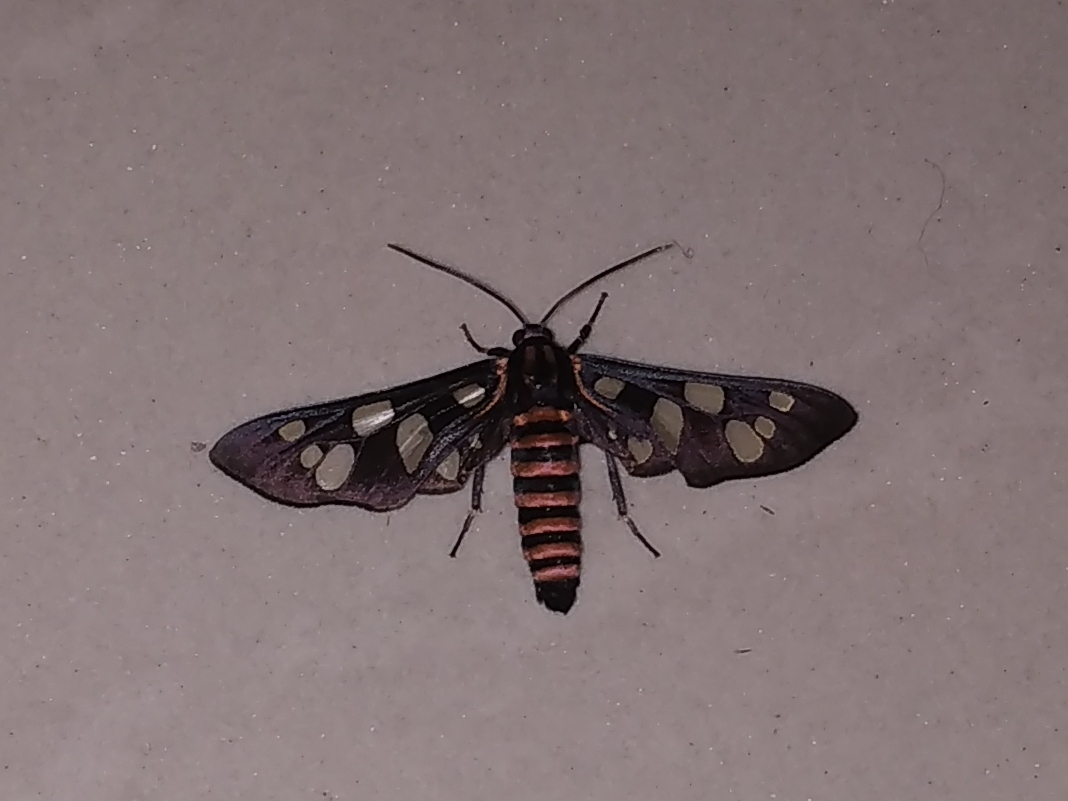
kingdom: Animalia
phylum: Arthropoda
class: Insecta
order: Lepidoptera
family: Erebidae
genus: Amata
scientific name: Amata passalis
